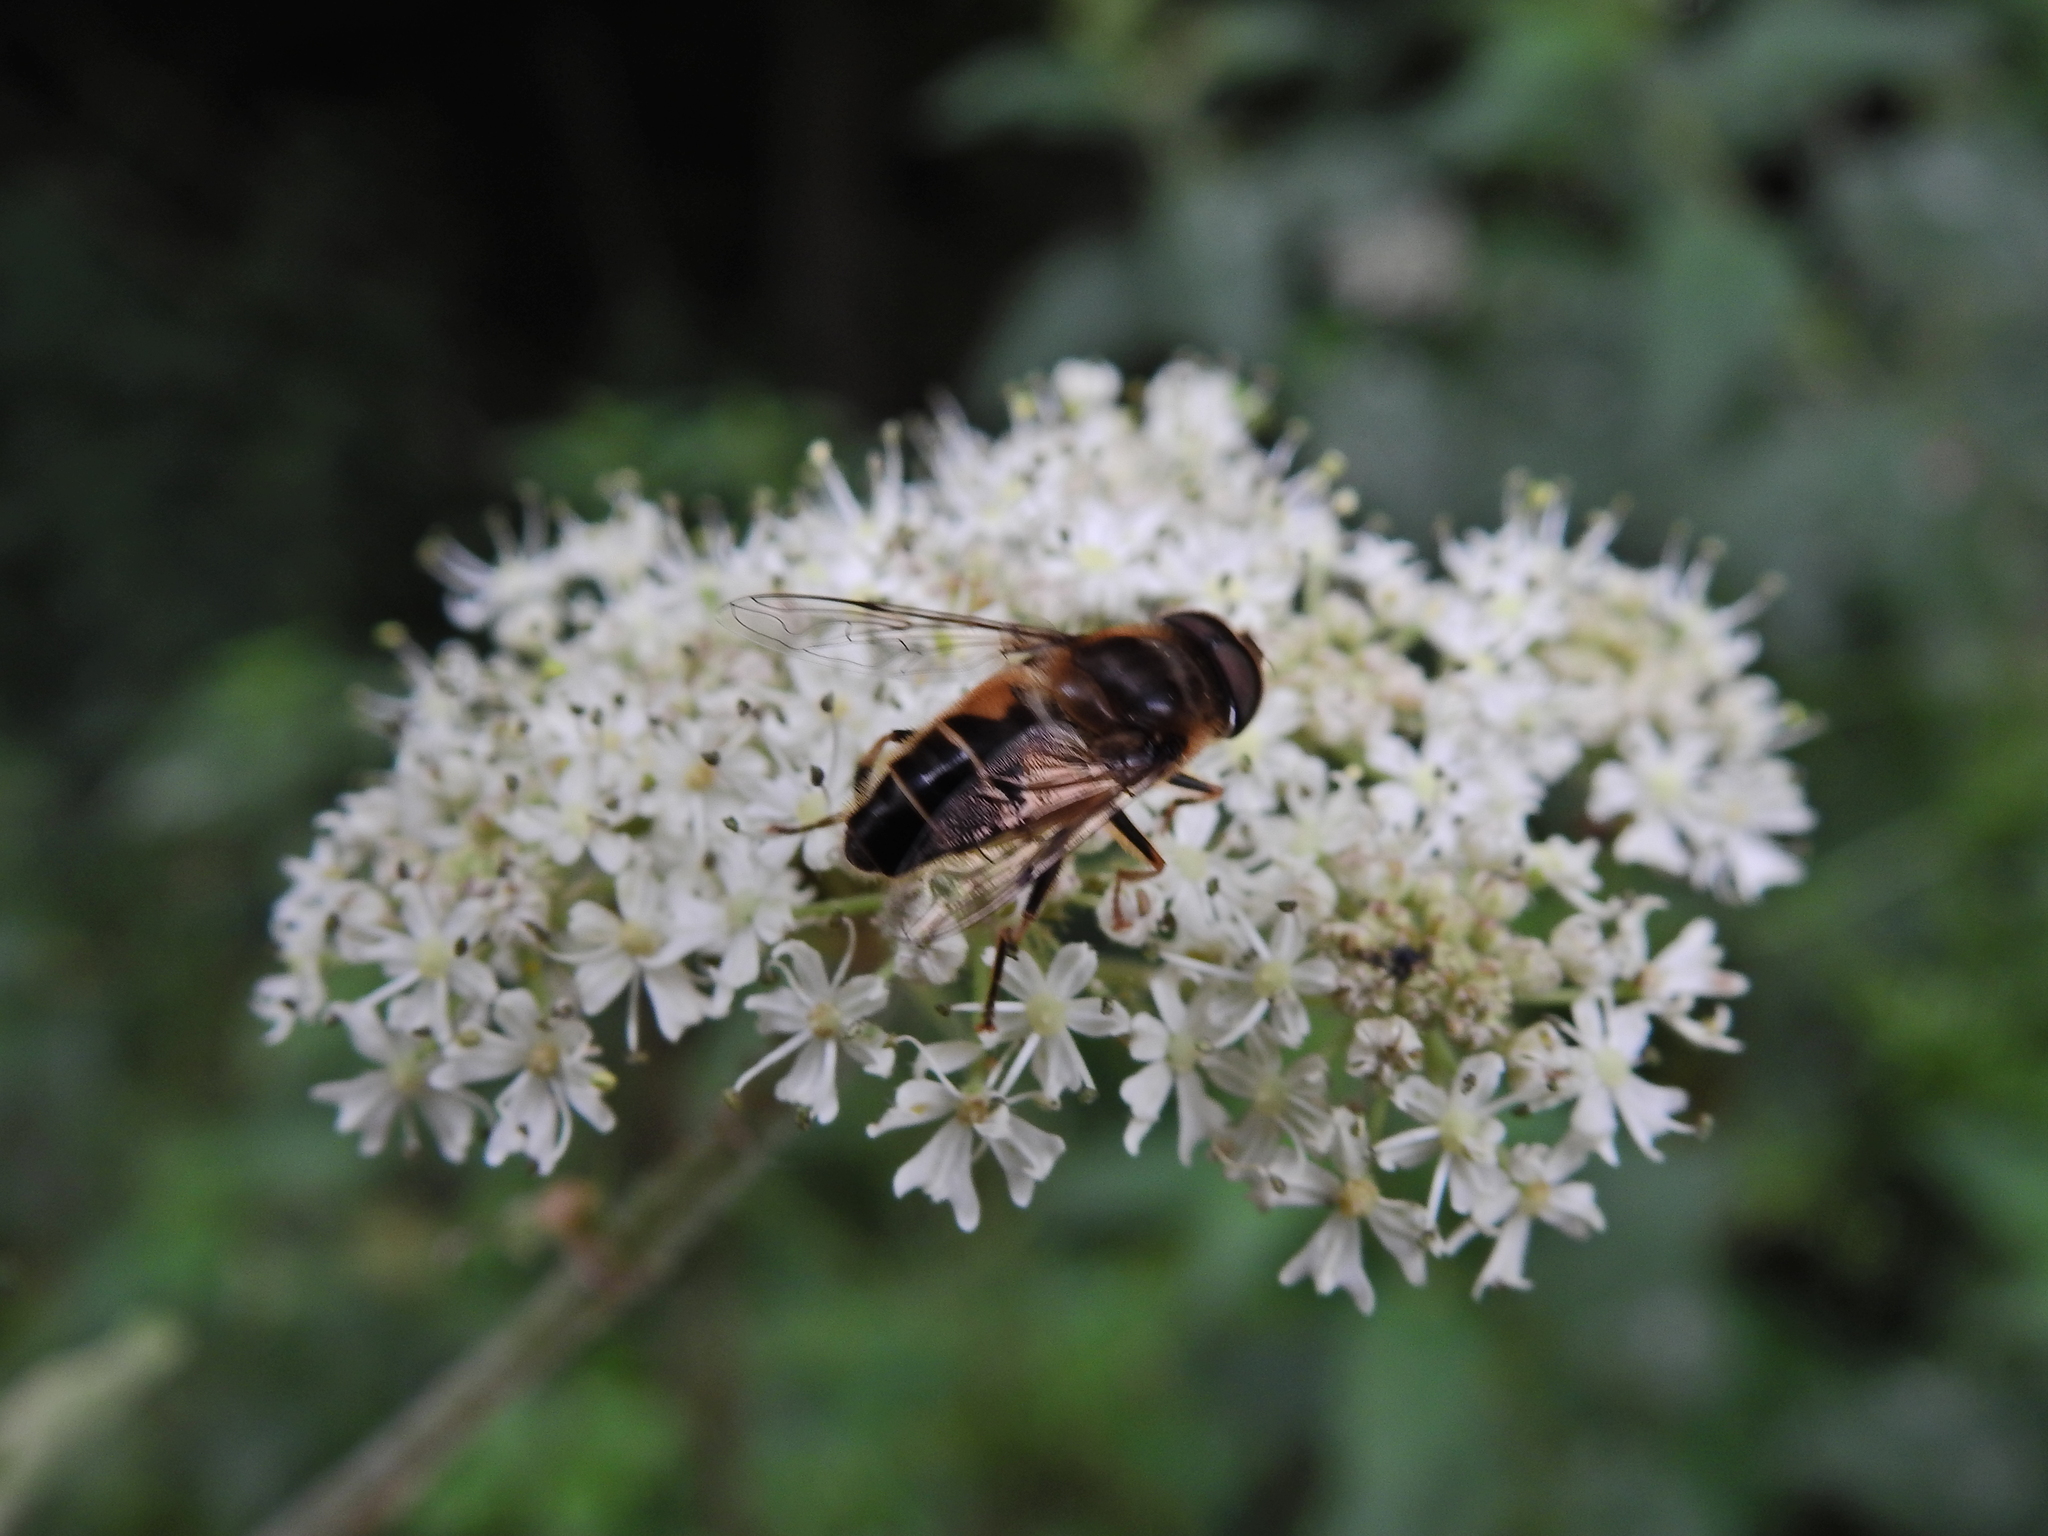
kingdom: Animalia
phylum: Arthropoda
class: Insecta
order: Diptera
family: Syrphidae
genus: Eristalis
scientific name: Eristalis pertinax
